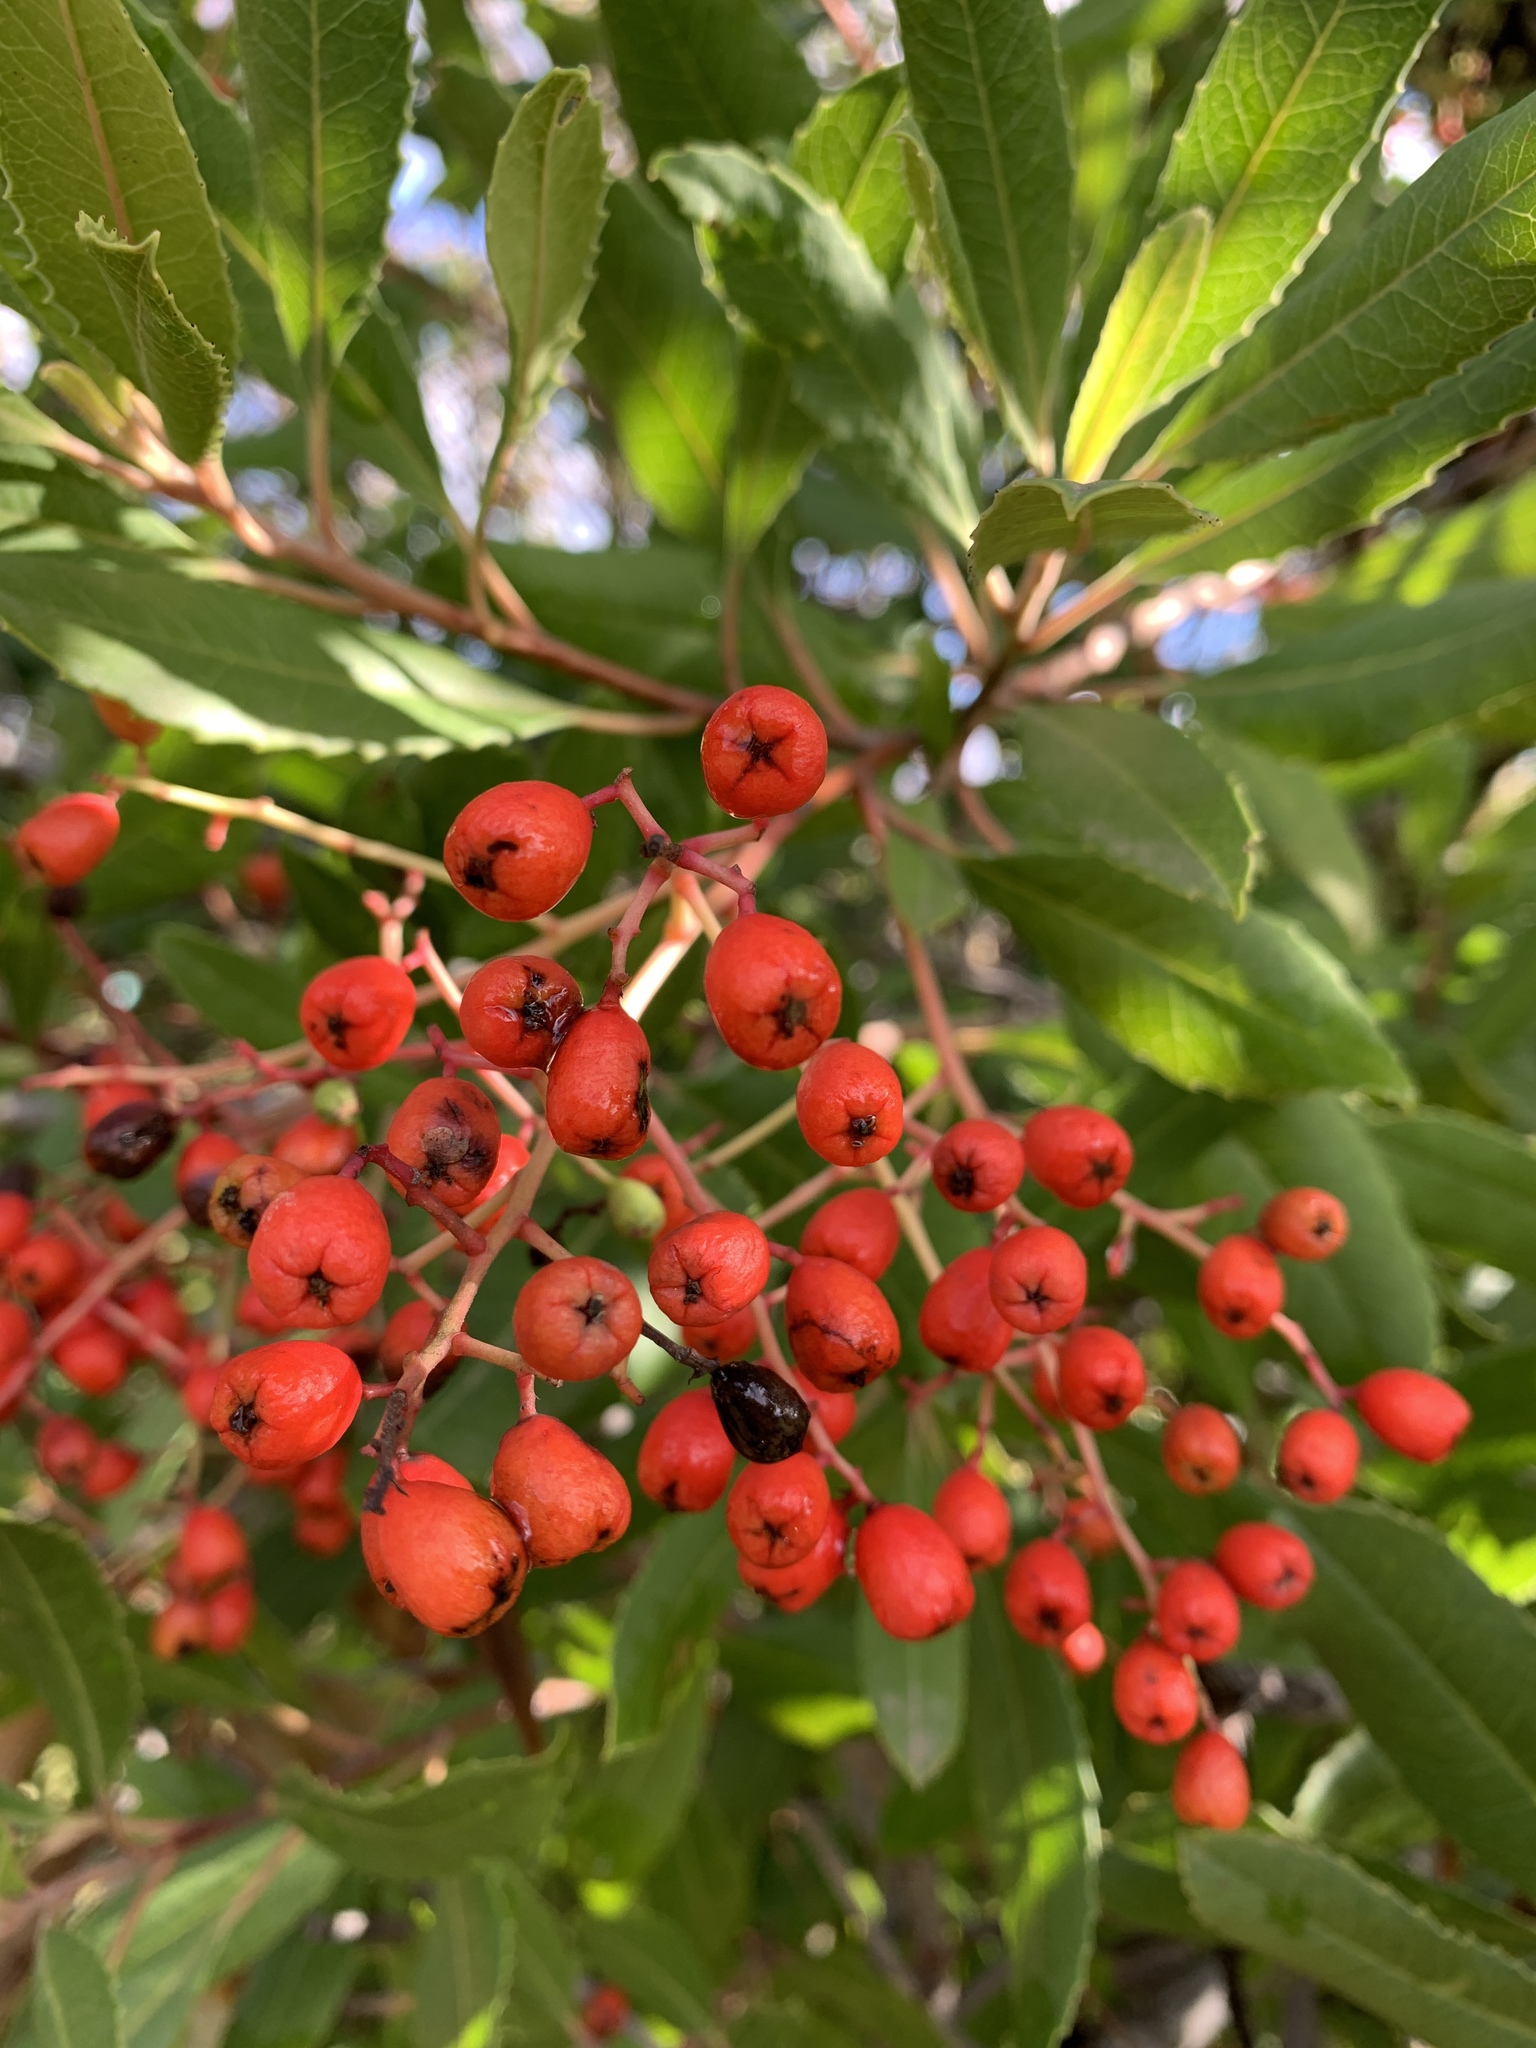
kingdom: Plantae
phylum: Tracheophyta
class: Magnoliopsida
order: Rosales
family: Rosaceae
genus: Heteromeles
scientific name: Heteromeles arbutifolia
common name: California-holly
